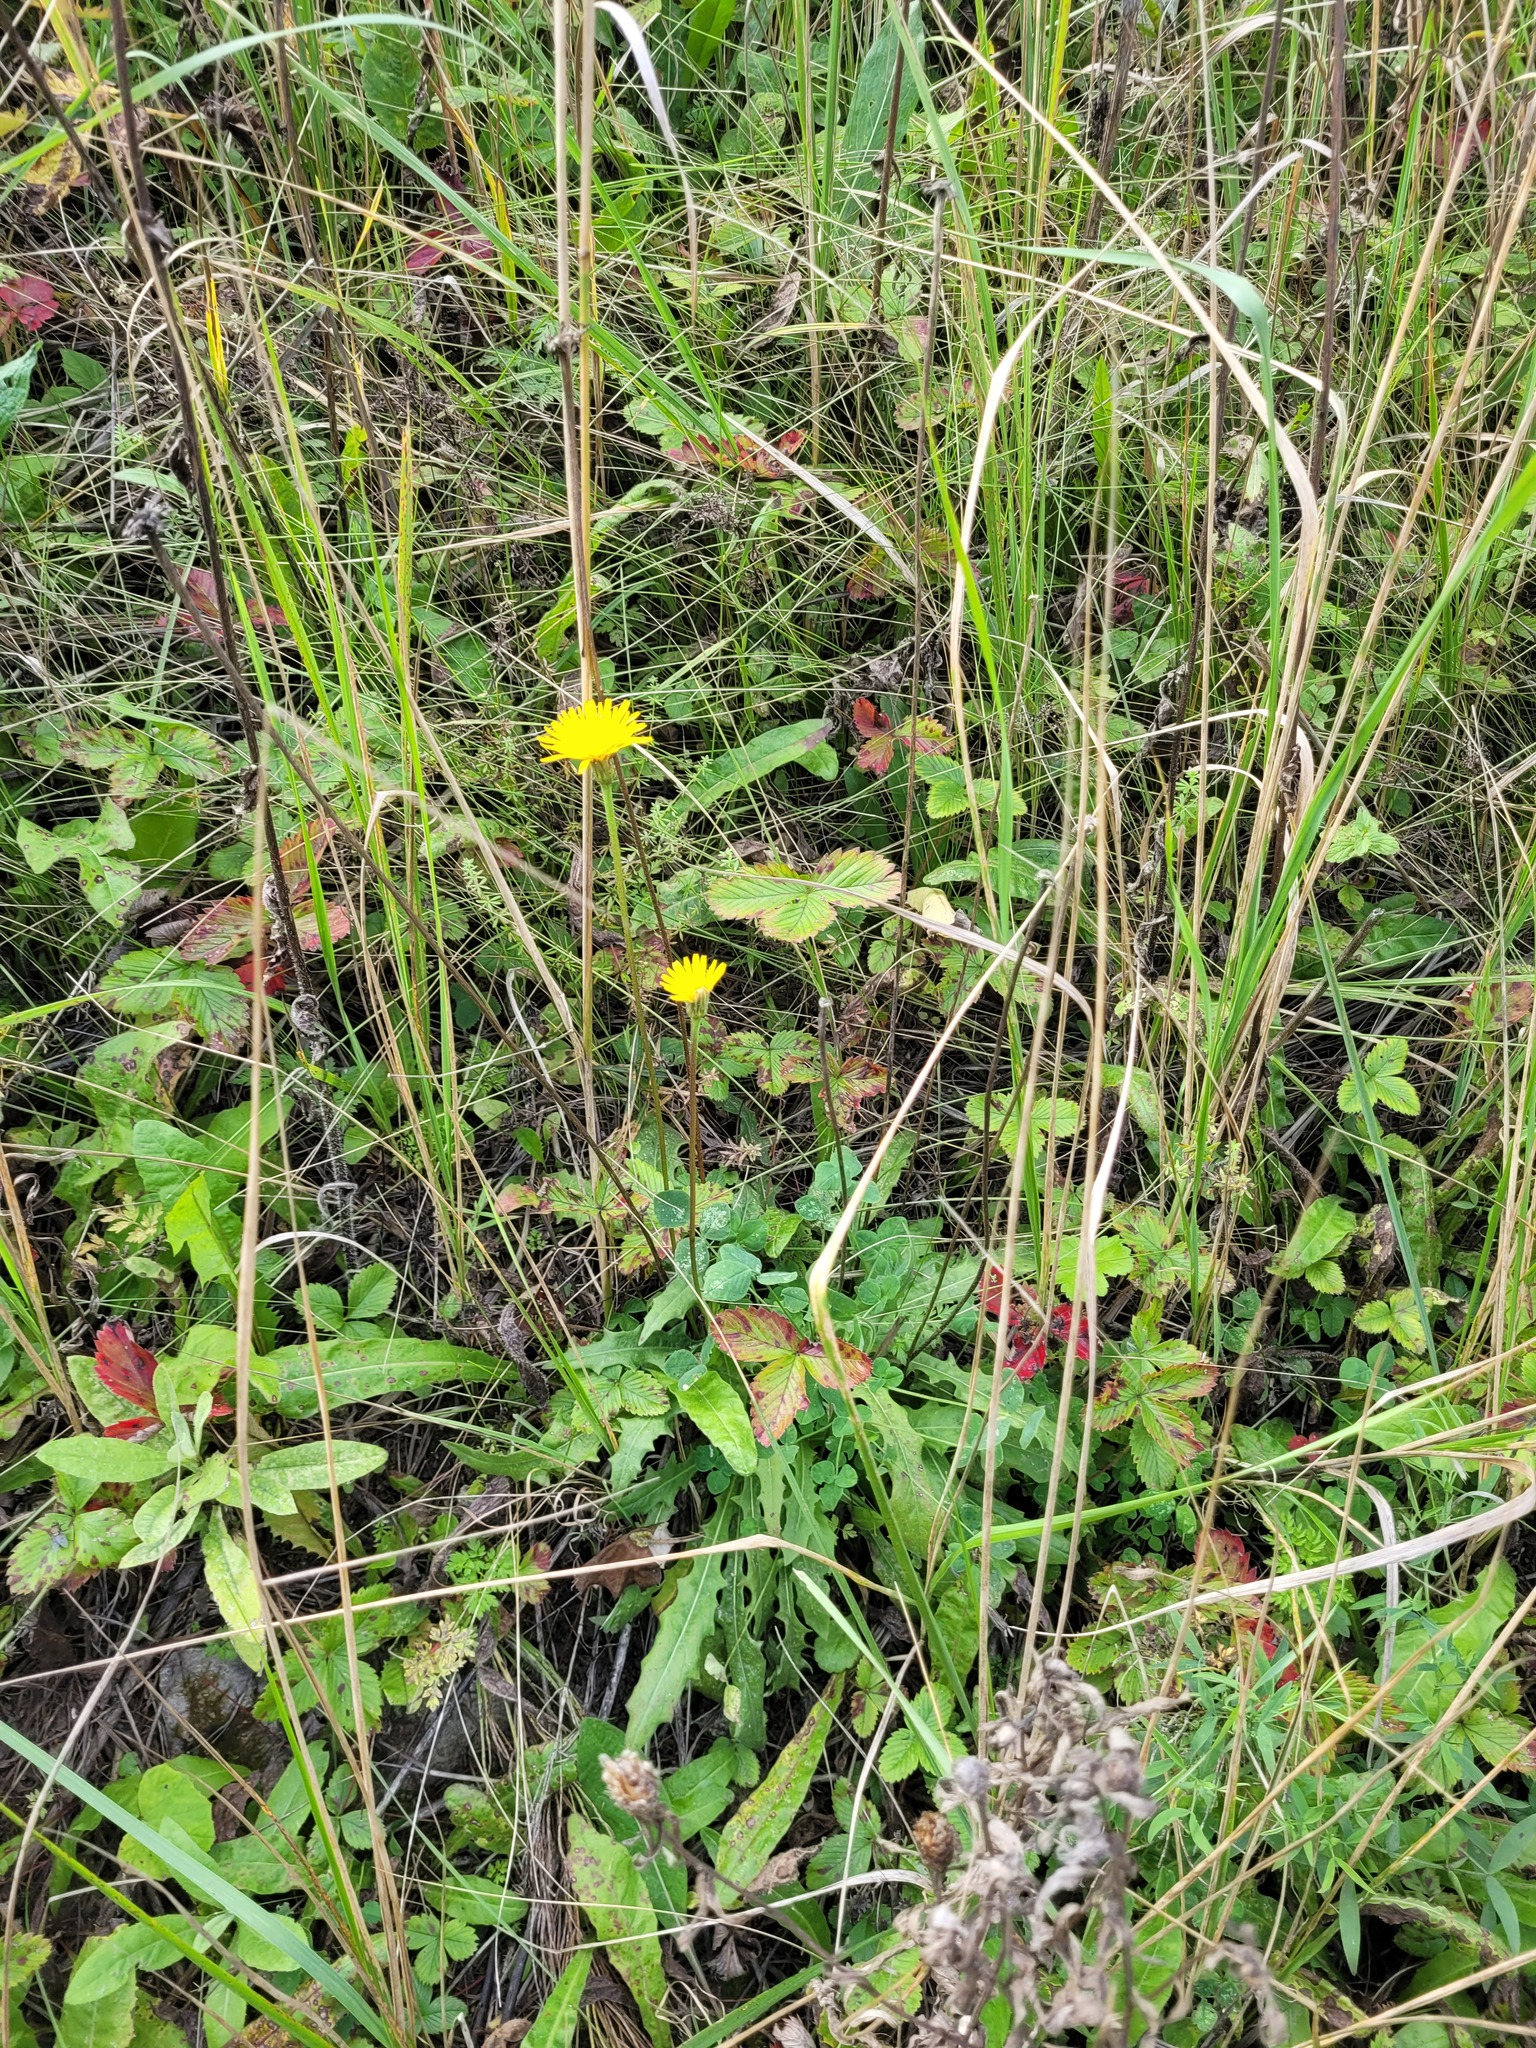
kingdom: Plantae
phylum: Tracheophyta
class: Magnoliopsida
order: Asterales
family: Asteraceae
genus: Leontodon
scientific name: Leontodon hispidus
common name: Rough hawkbit
